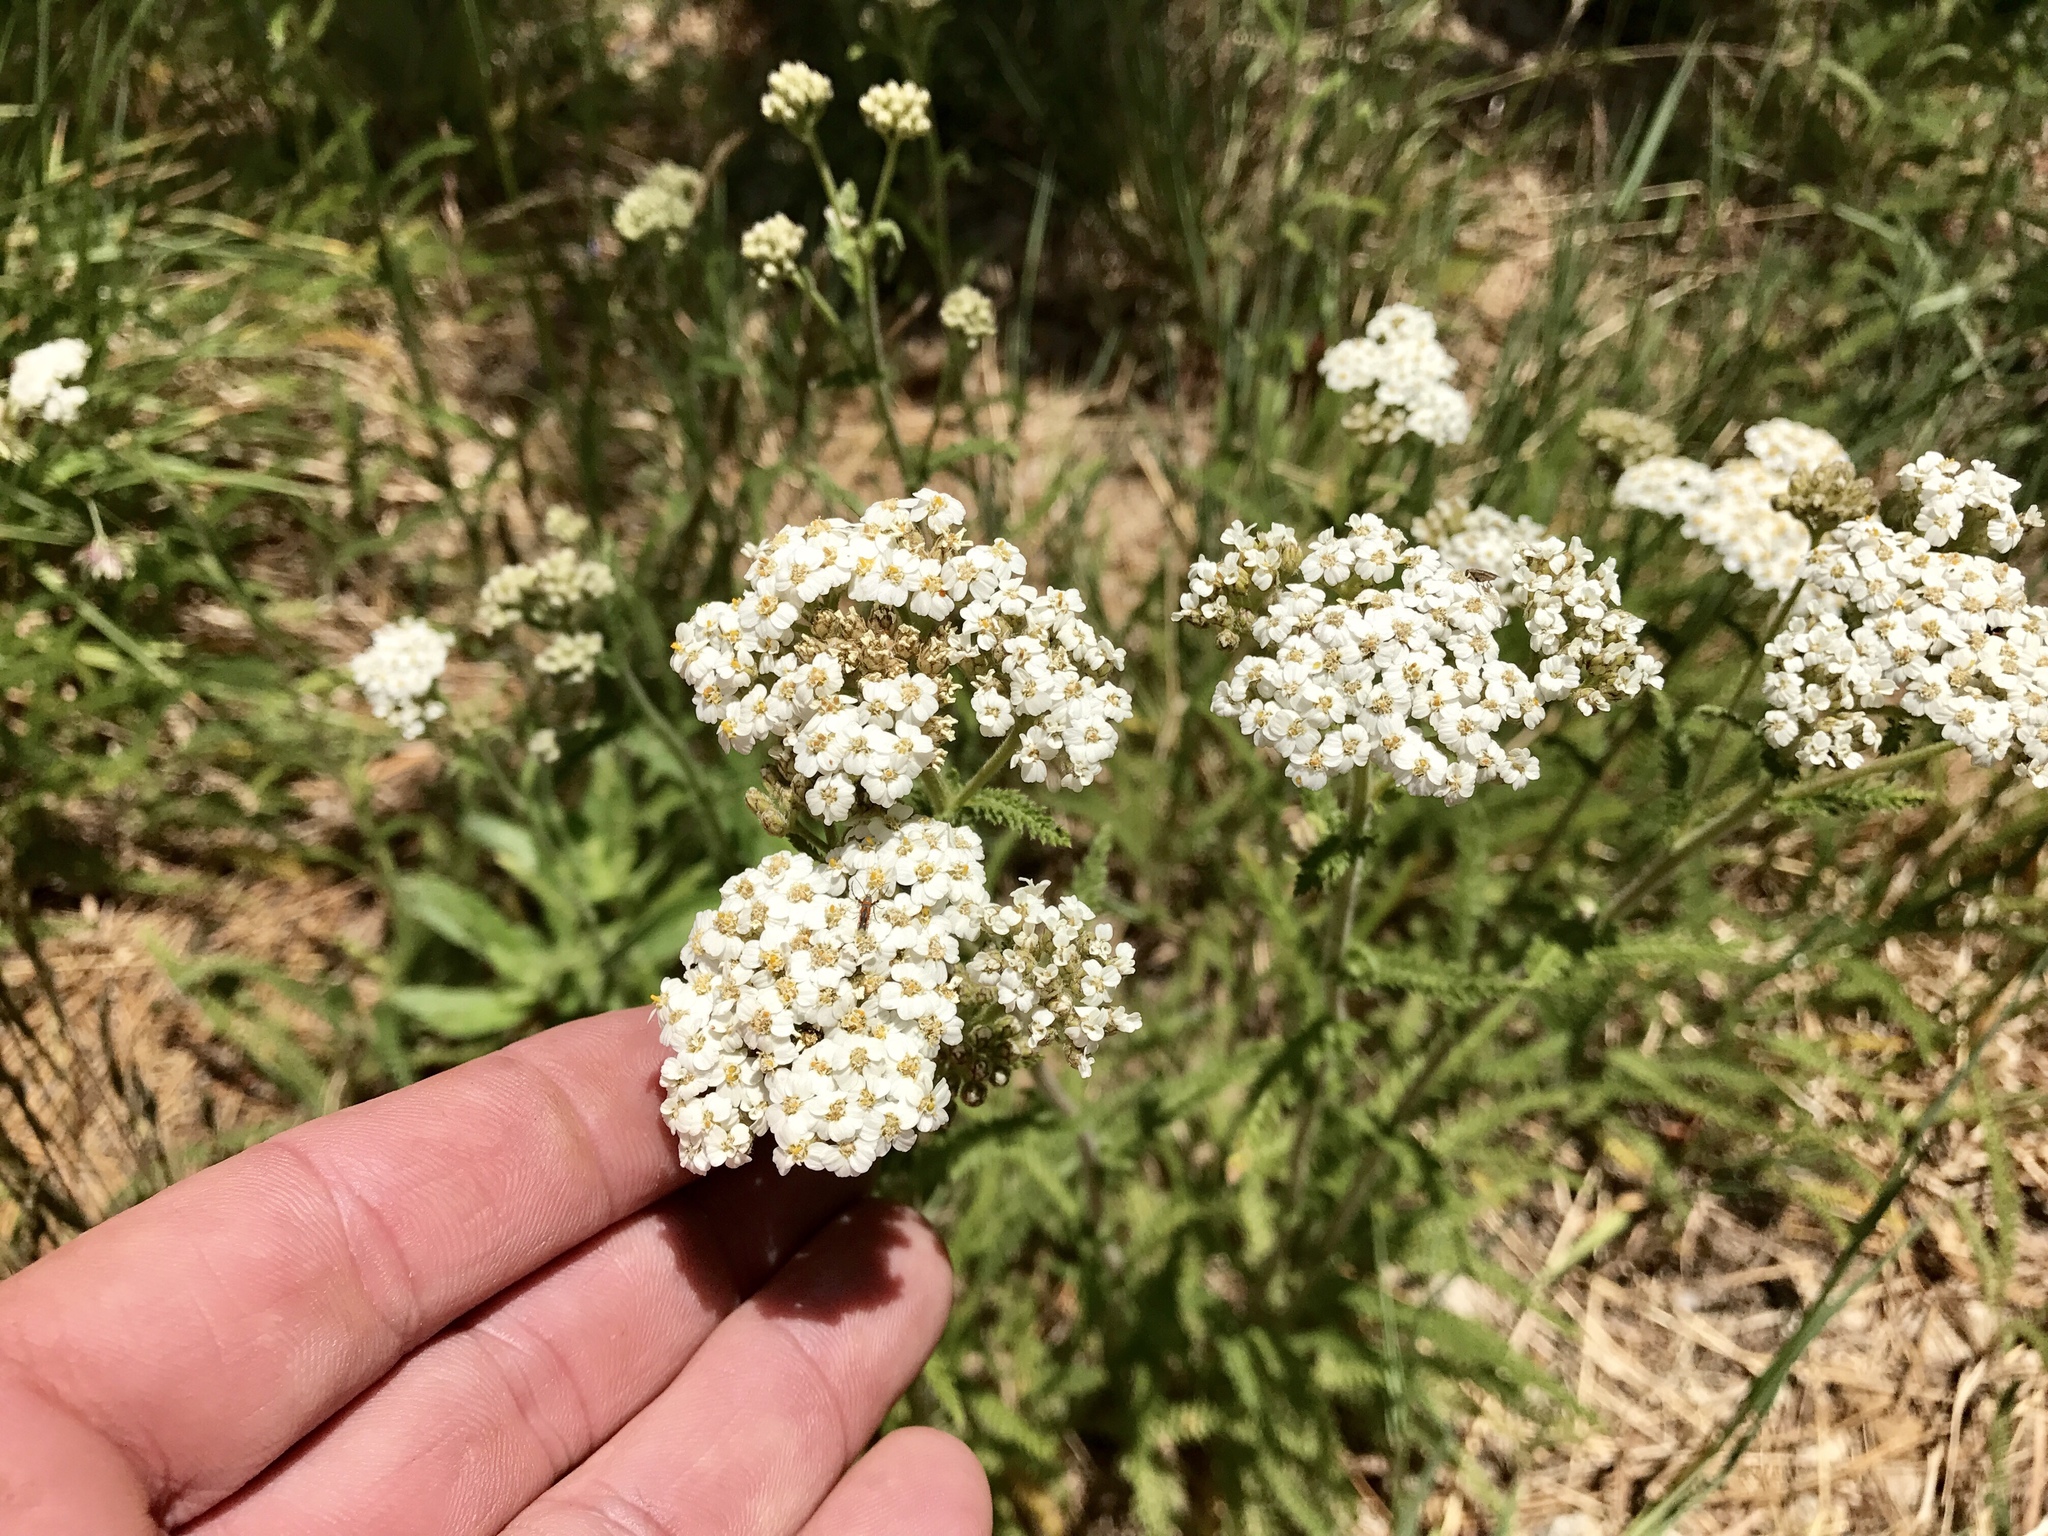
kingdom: Plantae
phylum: Tracheophyta
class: Magnoliopsida
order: Asterales
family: Asteraceae
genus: Achillea
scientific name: Achillea millefolium
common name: Yarrow
